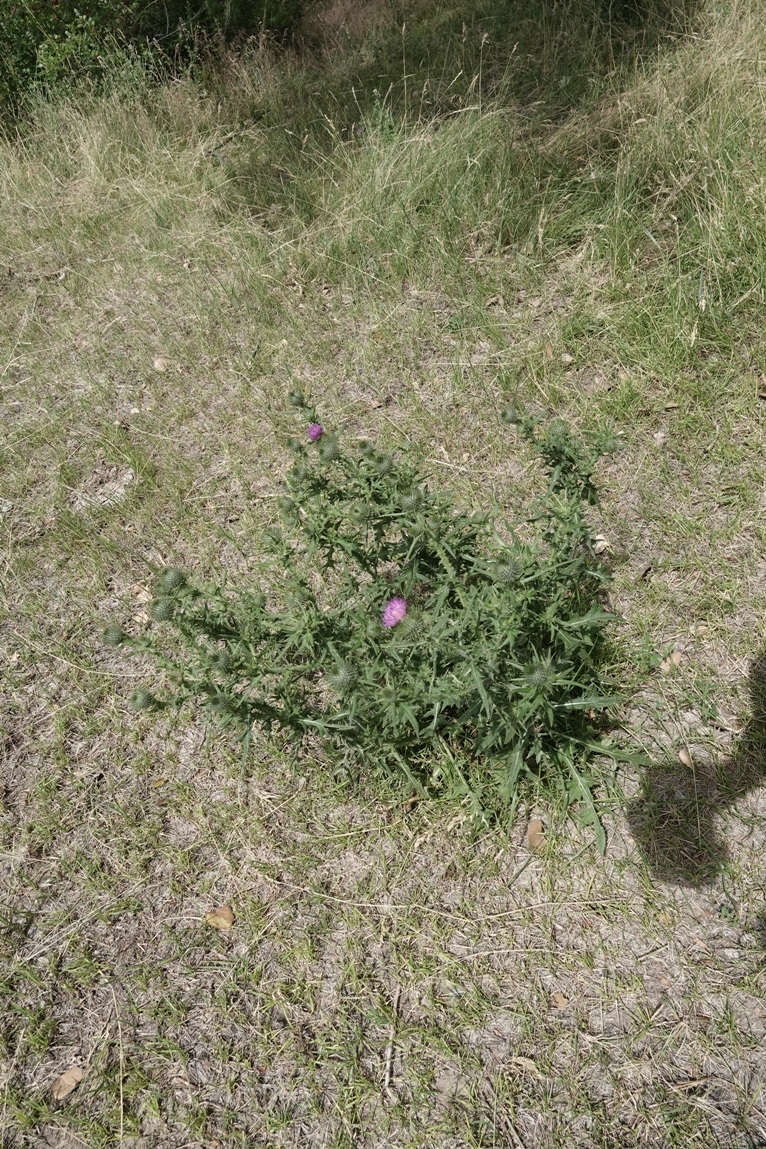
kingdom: Plantae
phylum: Tracheophyta
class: Magnoliopsida
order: Asterales
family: Asteraceae
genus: Cirsium
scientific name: Cirsium vulgare
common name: Bull thistle
